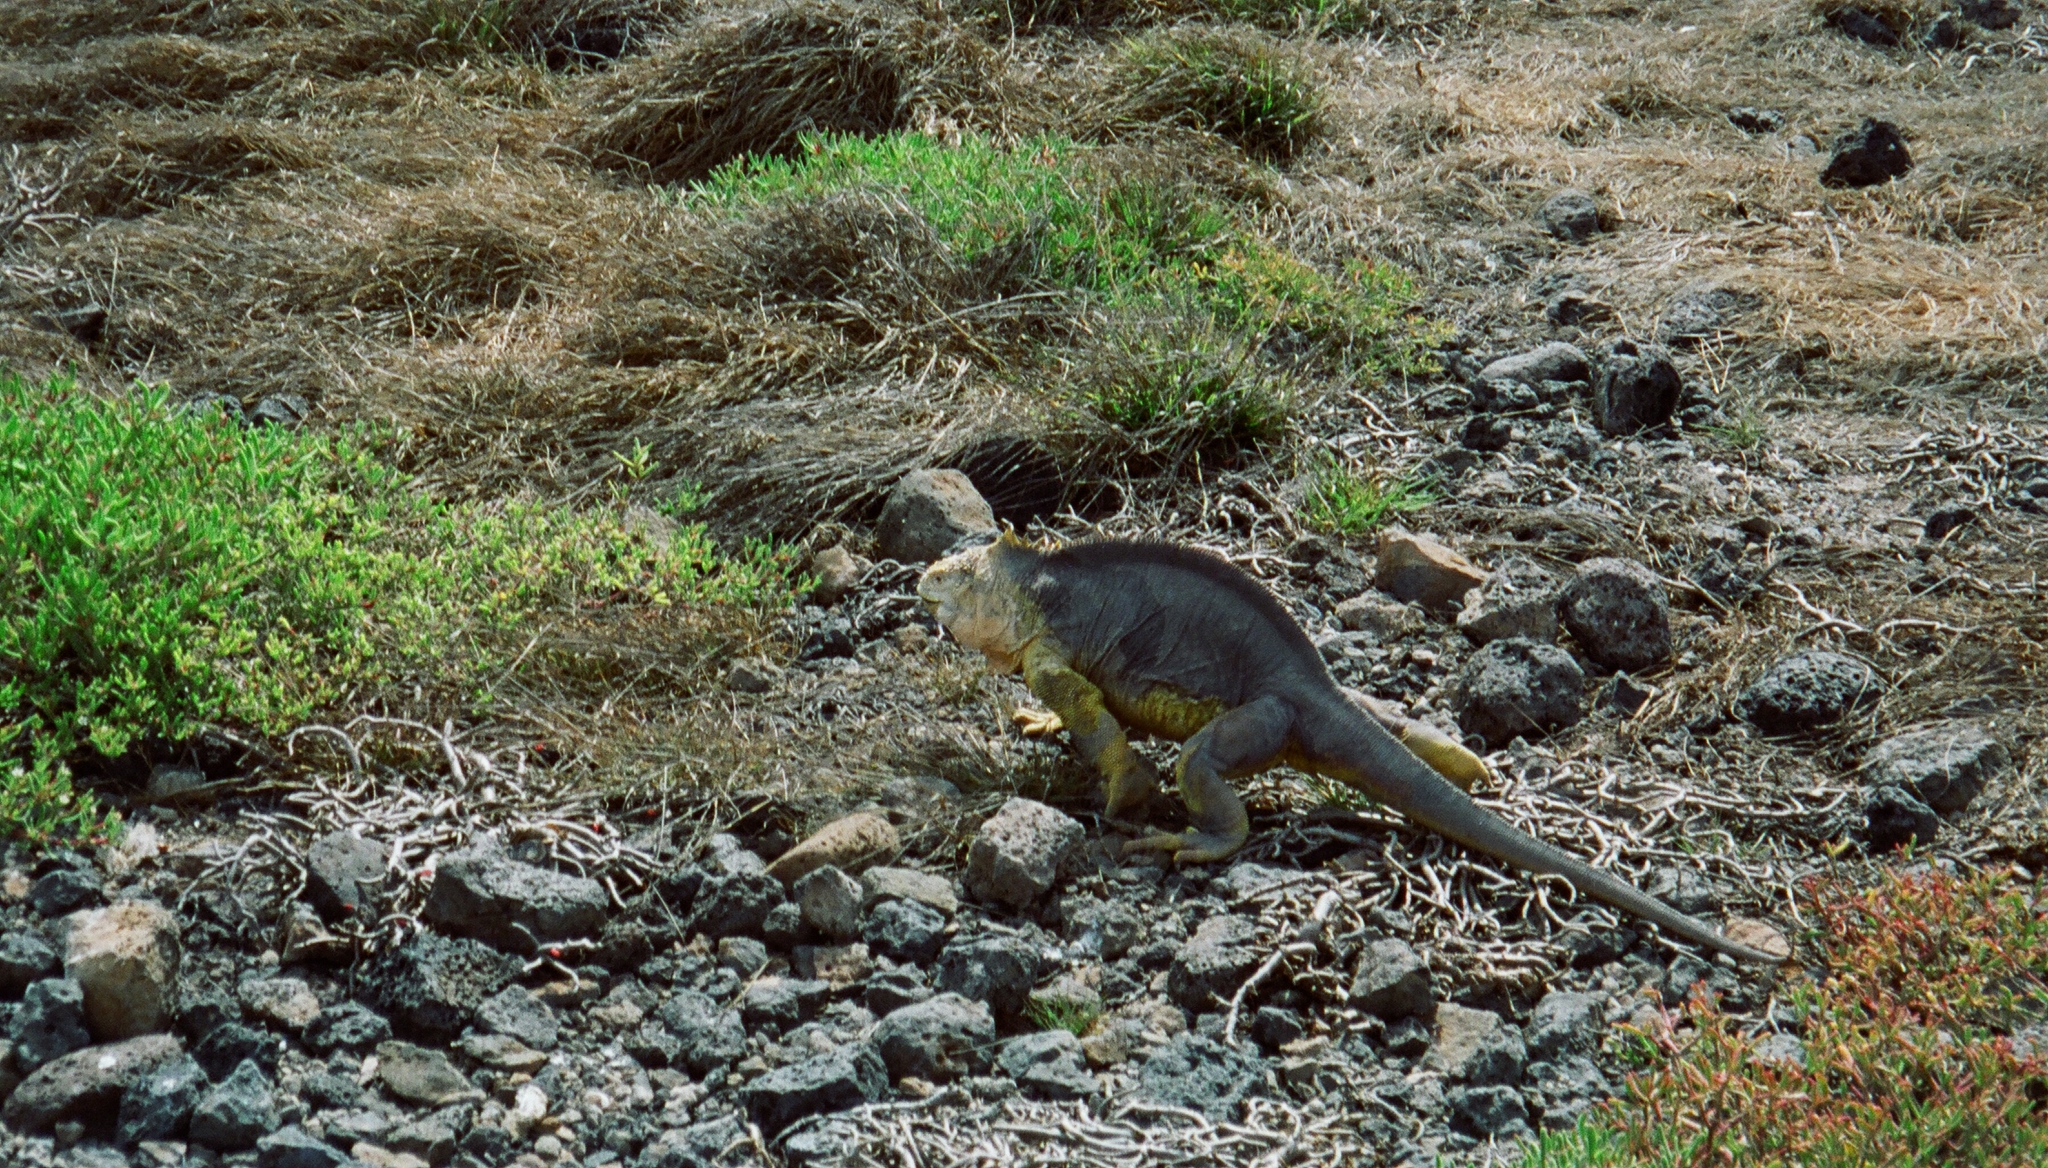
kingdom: Animalia
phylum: Chordata
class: Squamata
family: Iguanidae
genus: Conolophus
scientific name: Conolophus subcristatus
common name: Galapagos land iguana
